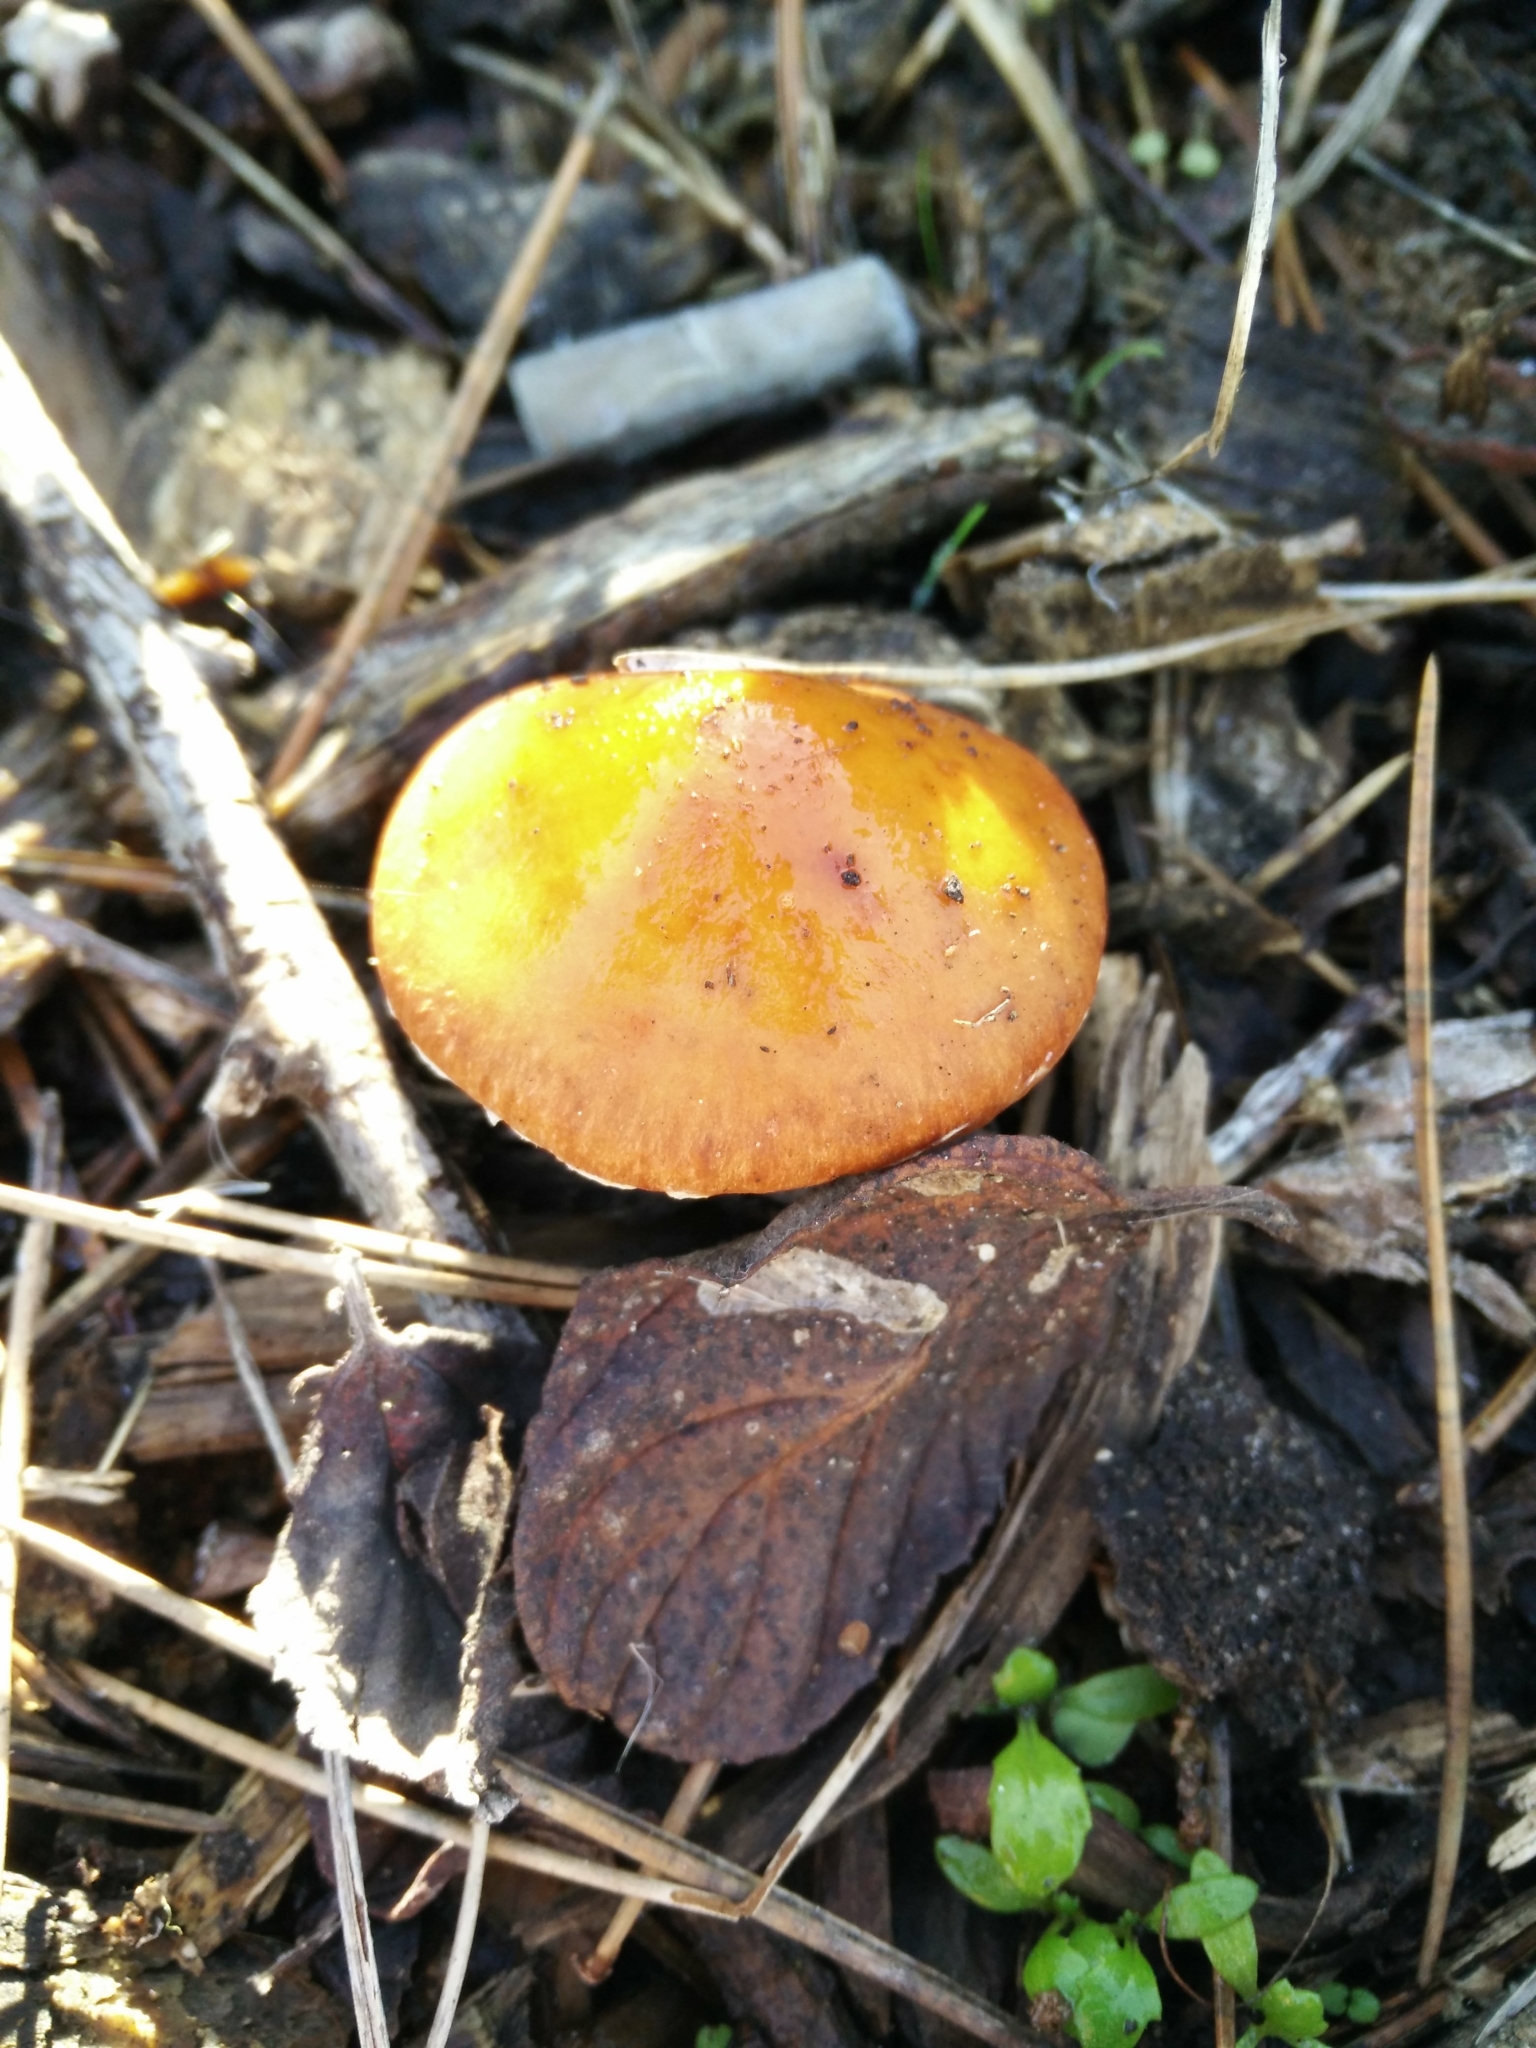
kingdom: Fungi
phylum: Basidiomycota
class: Agaricomycetes
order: Agaricales
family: Strophariaceae
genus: Leratiomyces
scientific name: Leratiomyces ceres
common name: Redlead roundhead
